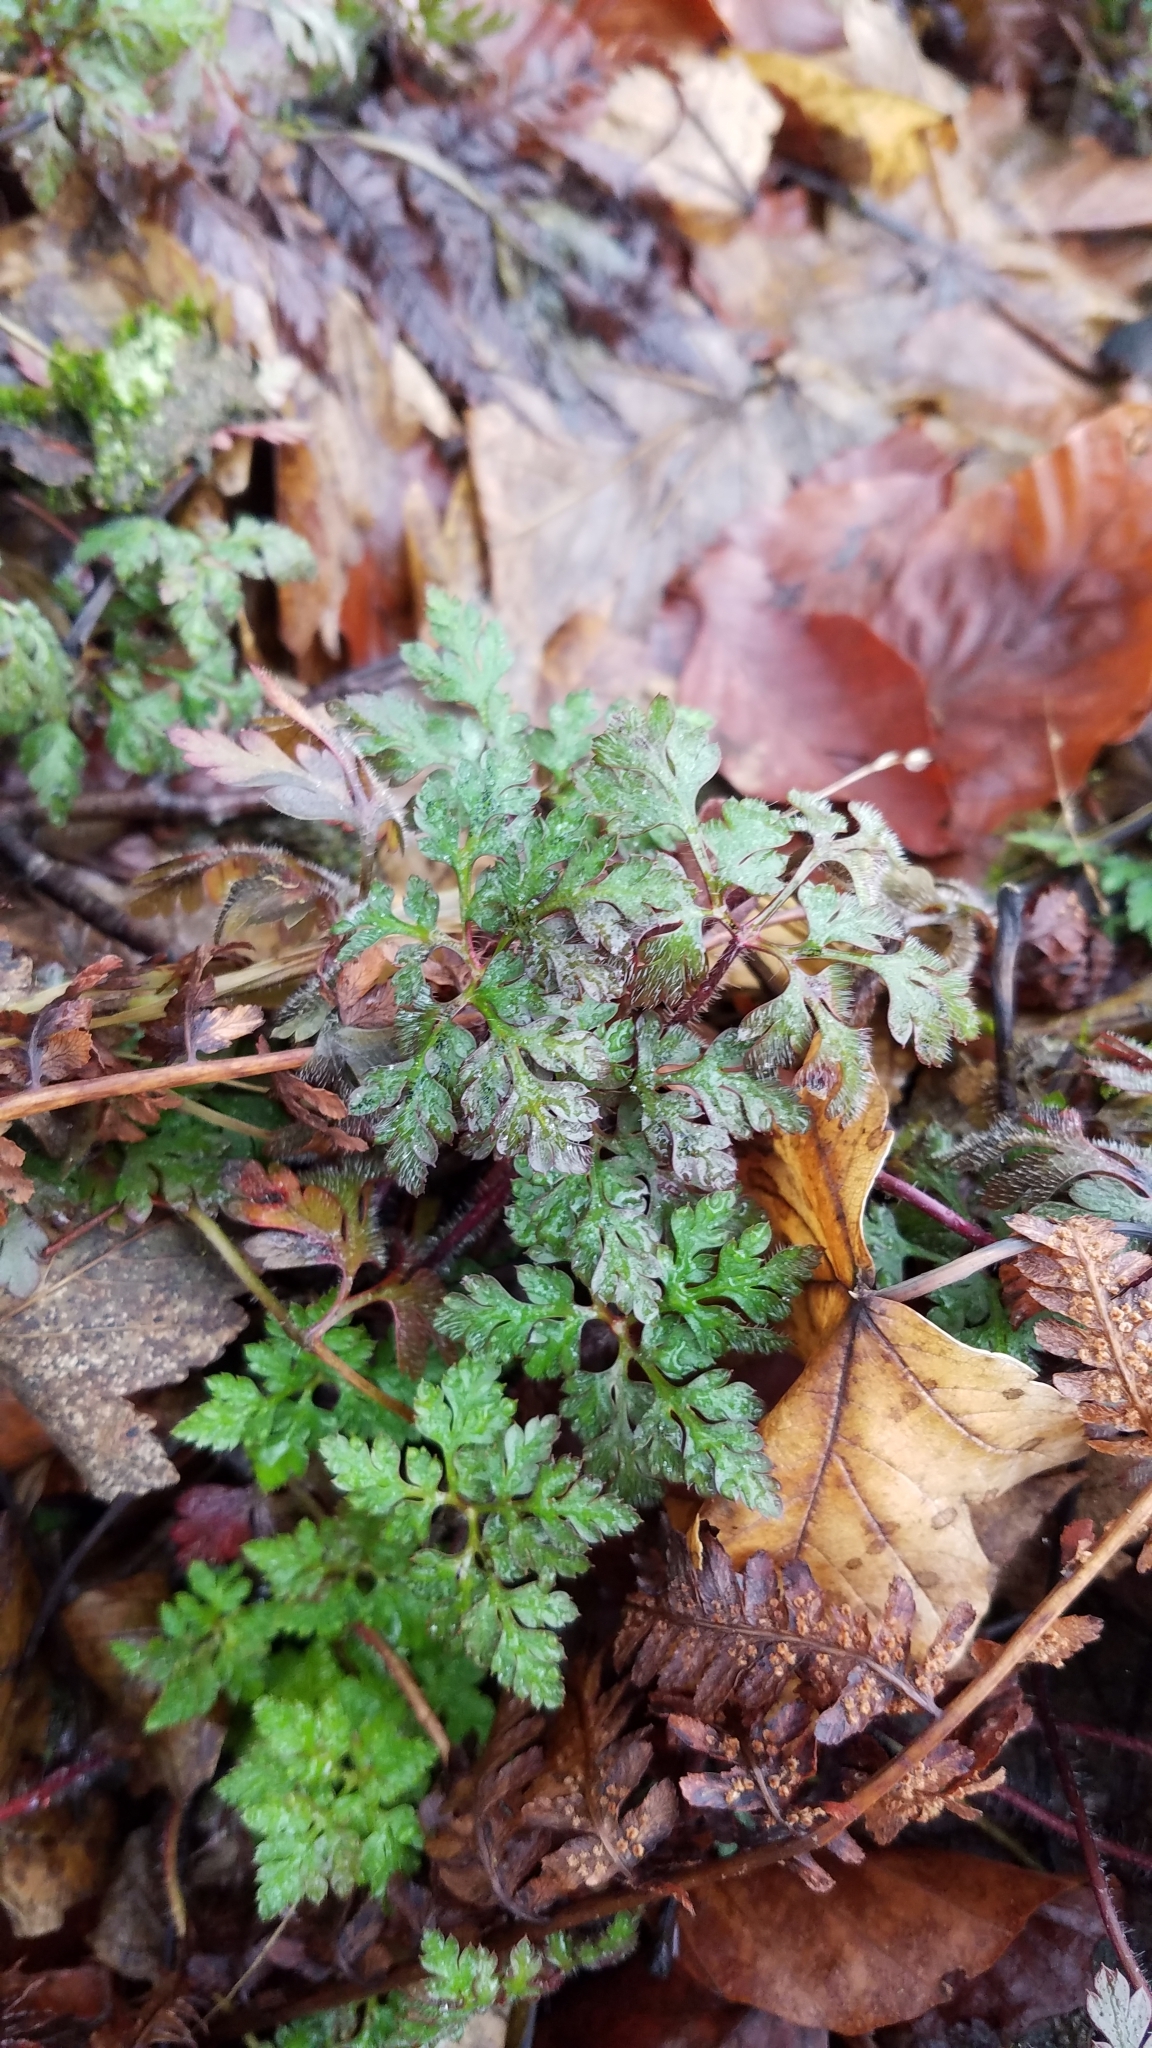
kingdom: Plantae
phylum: Tracheophyta
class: Magnoliopsida
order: Geraniales
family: Geraniaceae
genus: Geranium
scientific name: Geranium robertianum
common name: Herb-robert
